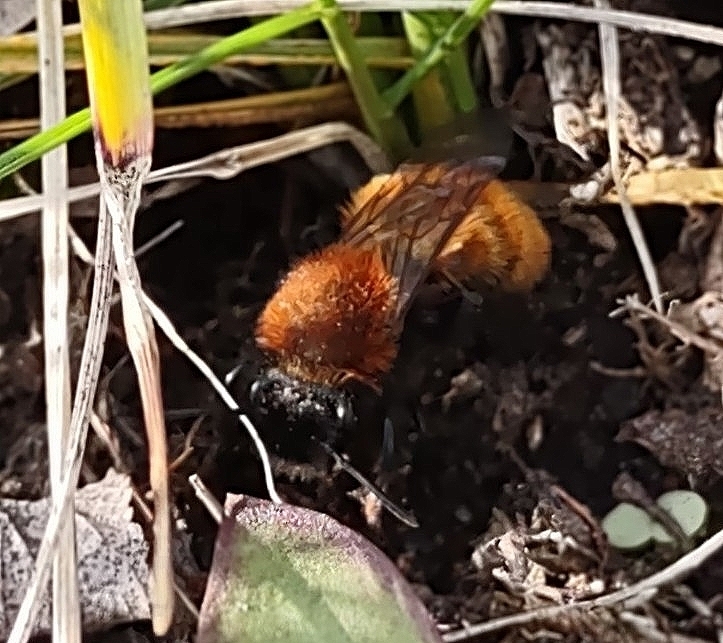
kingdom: Animalia
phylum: Arthropoda
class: Insecta
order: Hymenoptera
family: Andrenidae
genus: Andrena
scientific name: Andrena fulva
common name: Tawny mining bee
